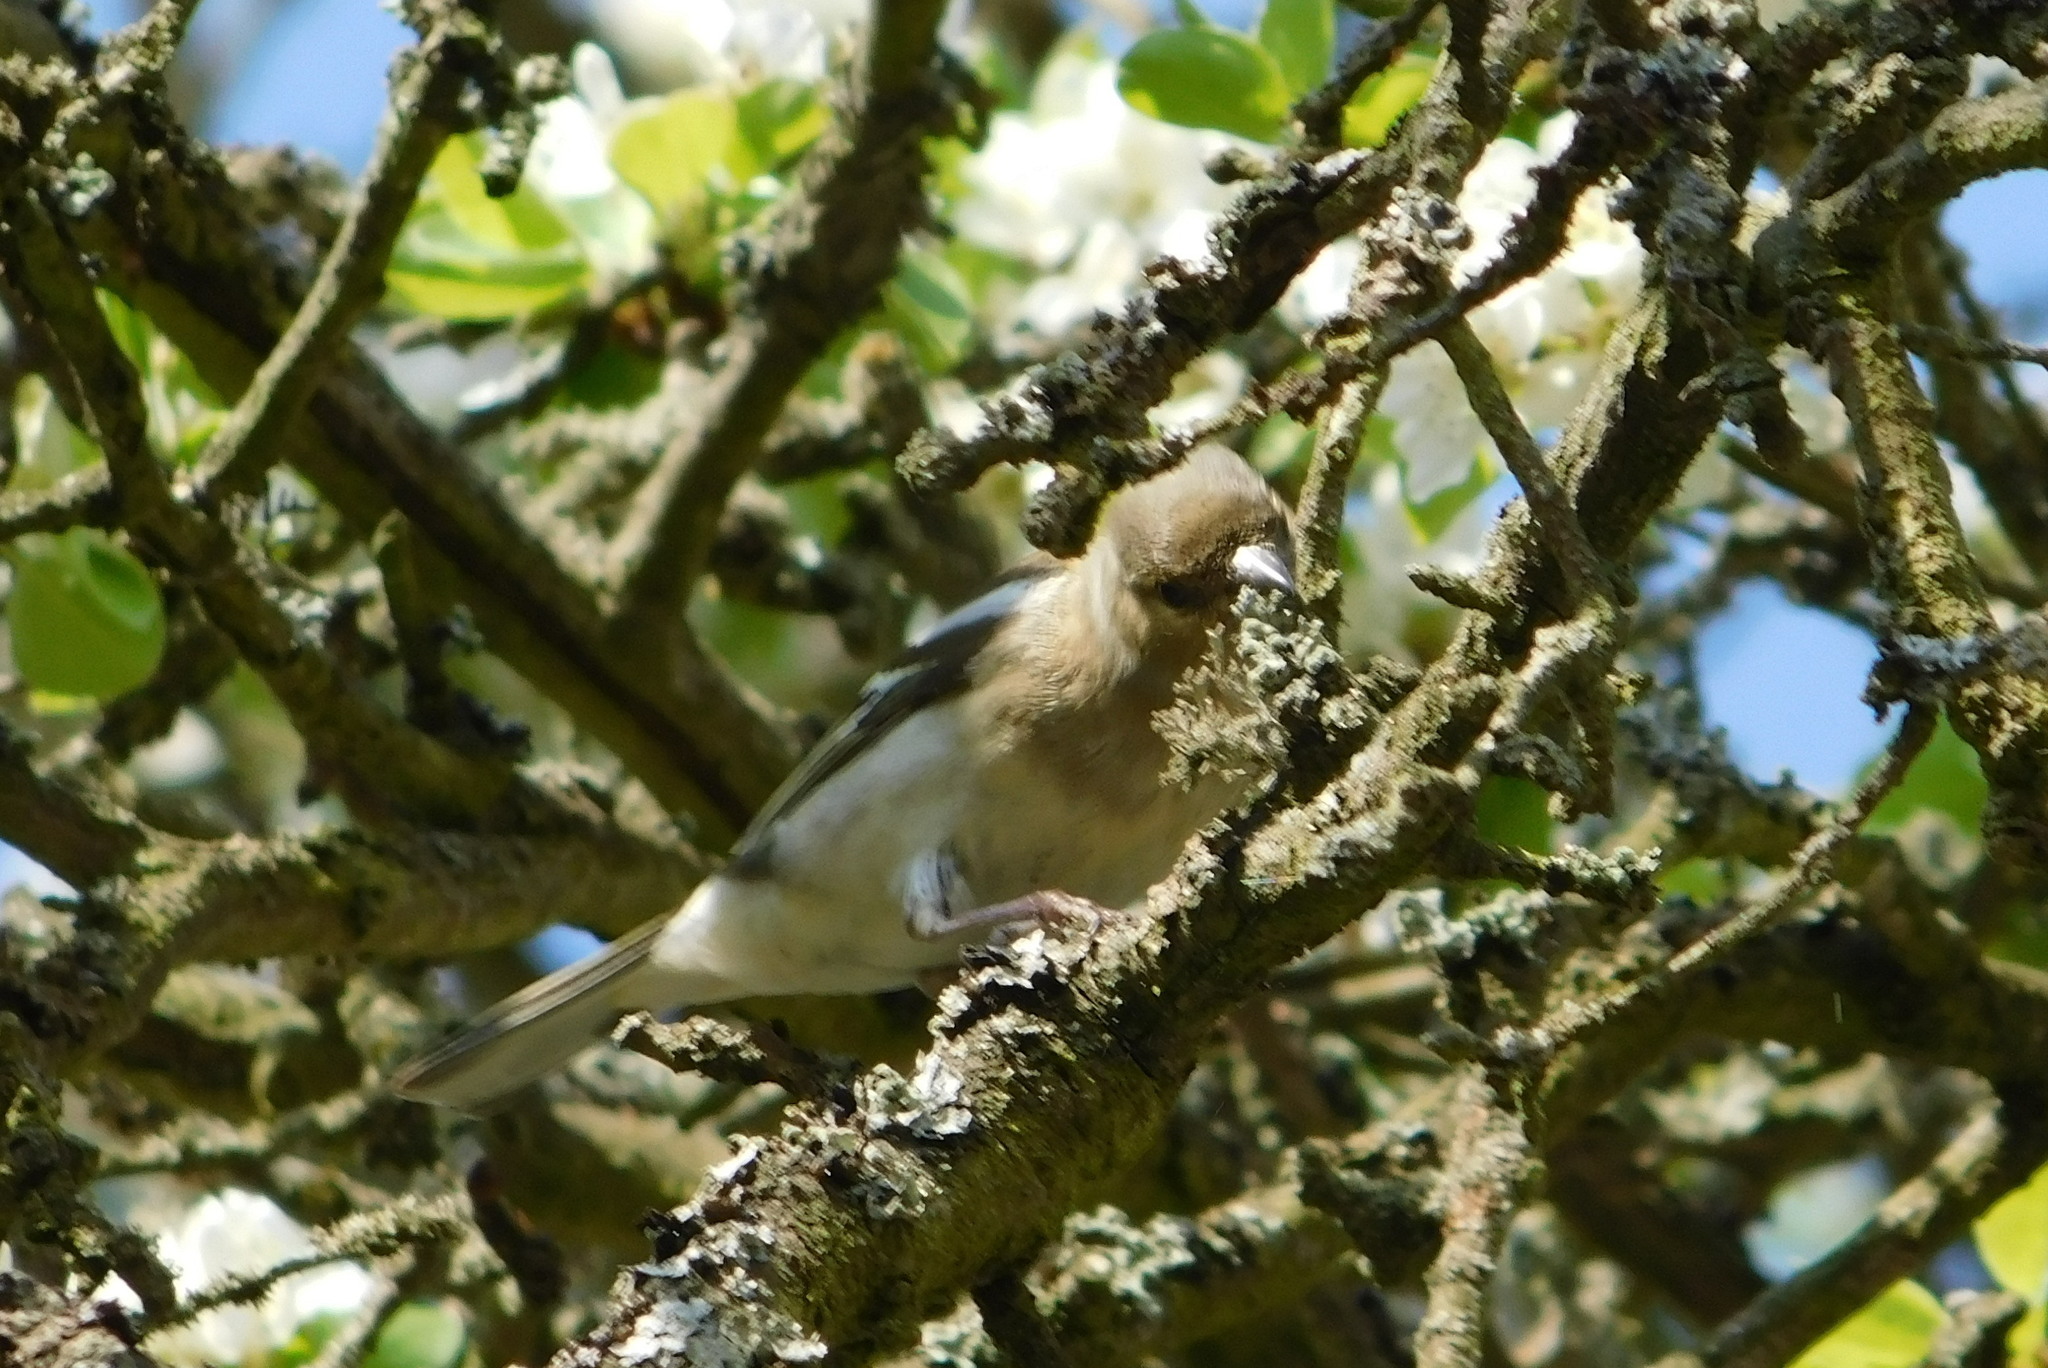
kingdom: Animalia
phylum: Chordata
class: Aves
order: Passeriformes
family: Fringillidae
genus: Fringilla
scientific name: Fringilla coelebs
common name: Common chaffinch
